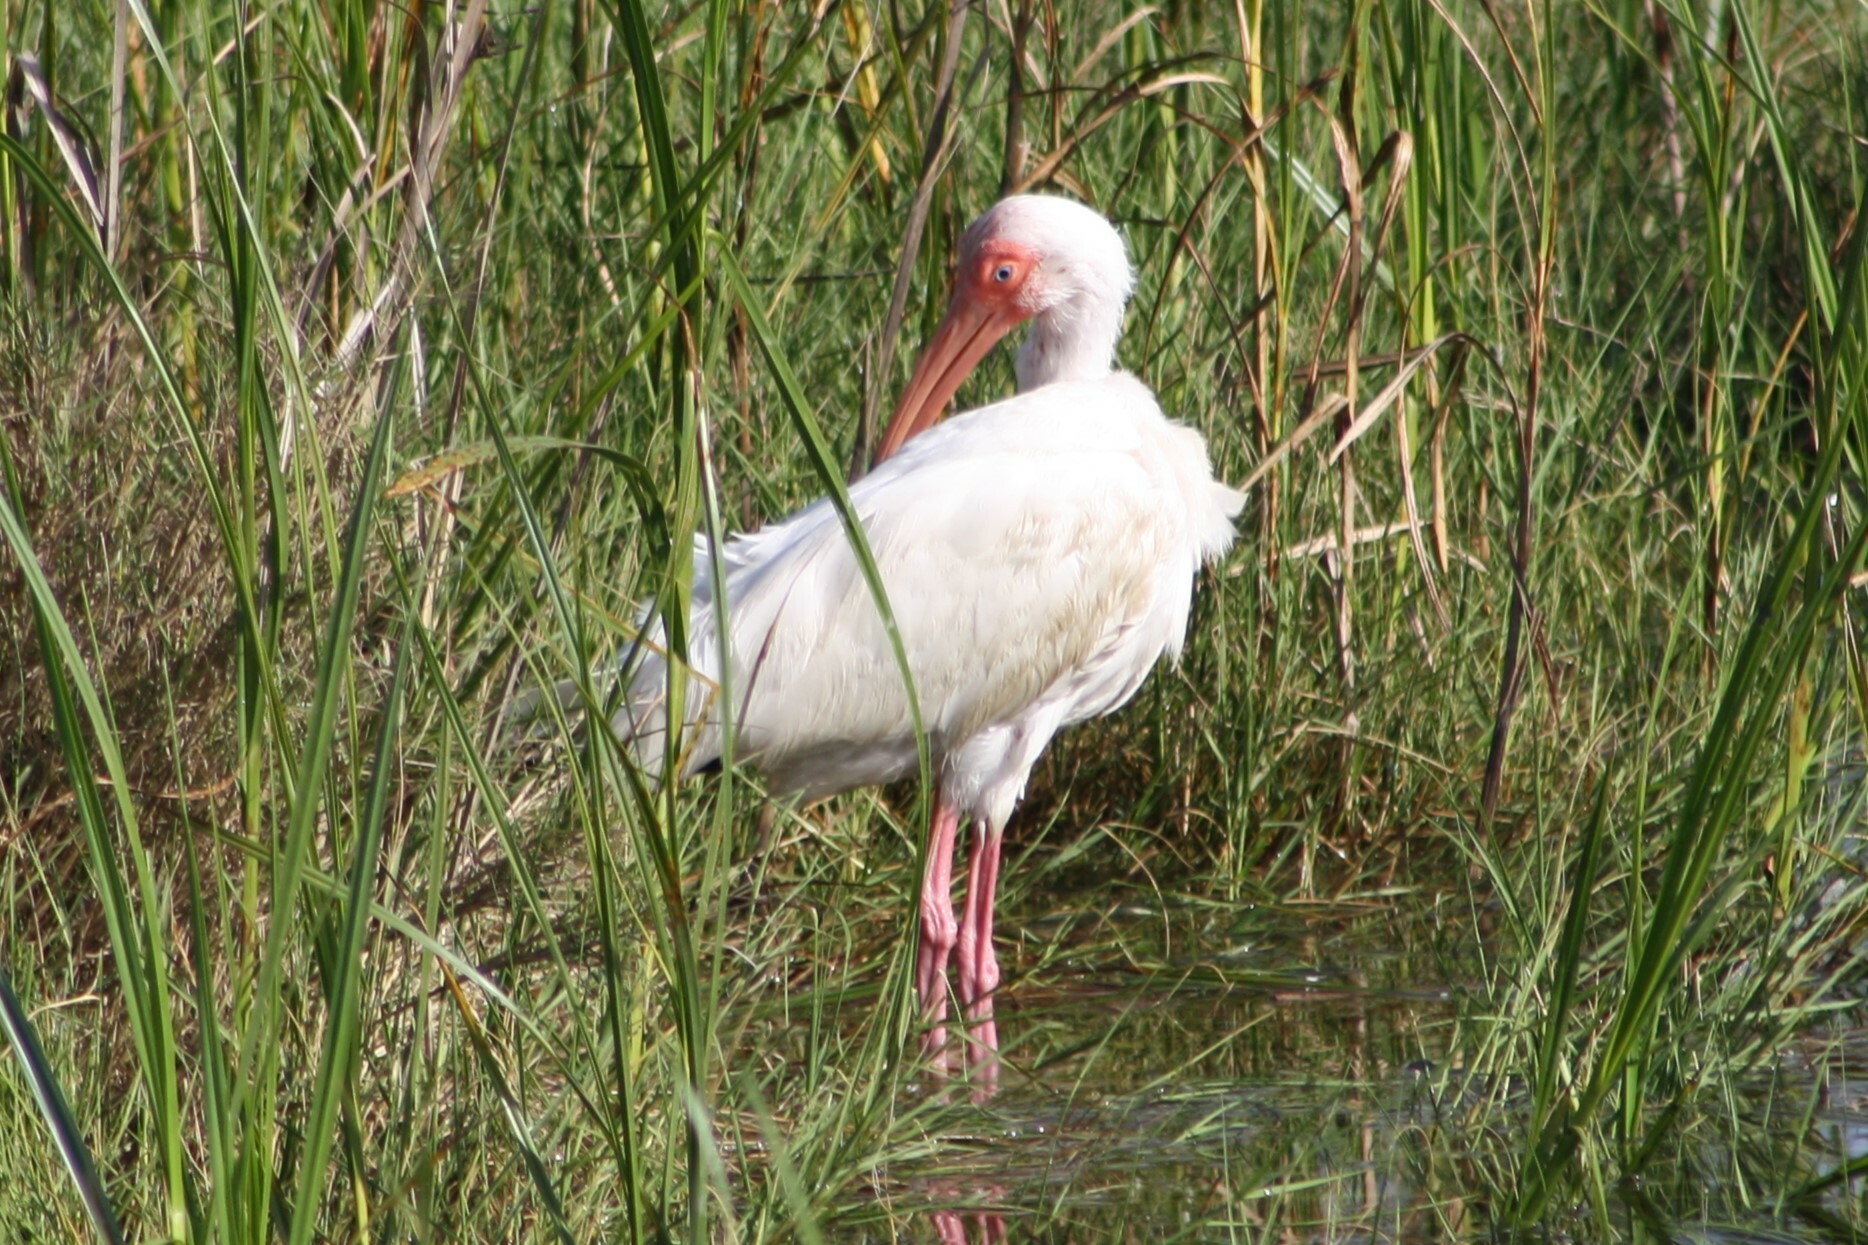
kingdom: Animalia
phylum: Chordata
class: Aves
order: Pelecaniformes
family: Threskiornithidae
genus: Eudocimus
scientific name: Eudocimus albus
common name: White ibis
